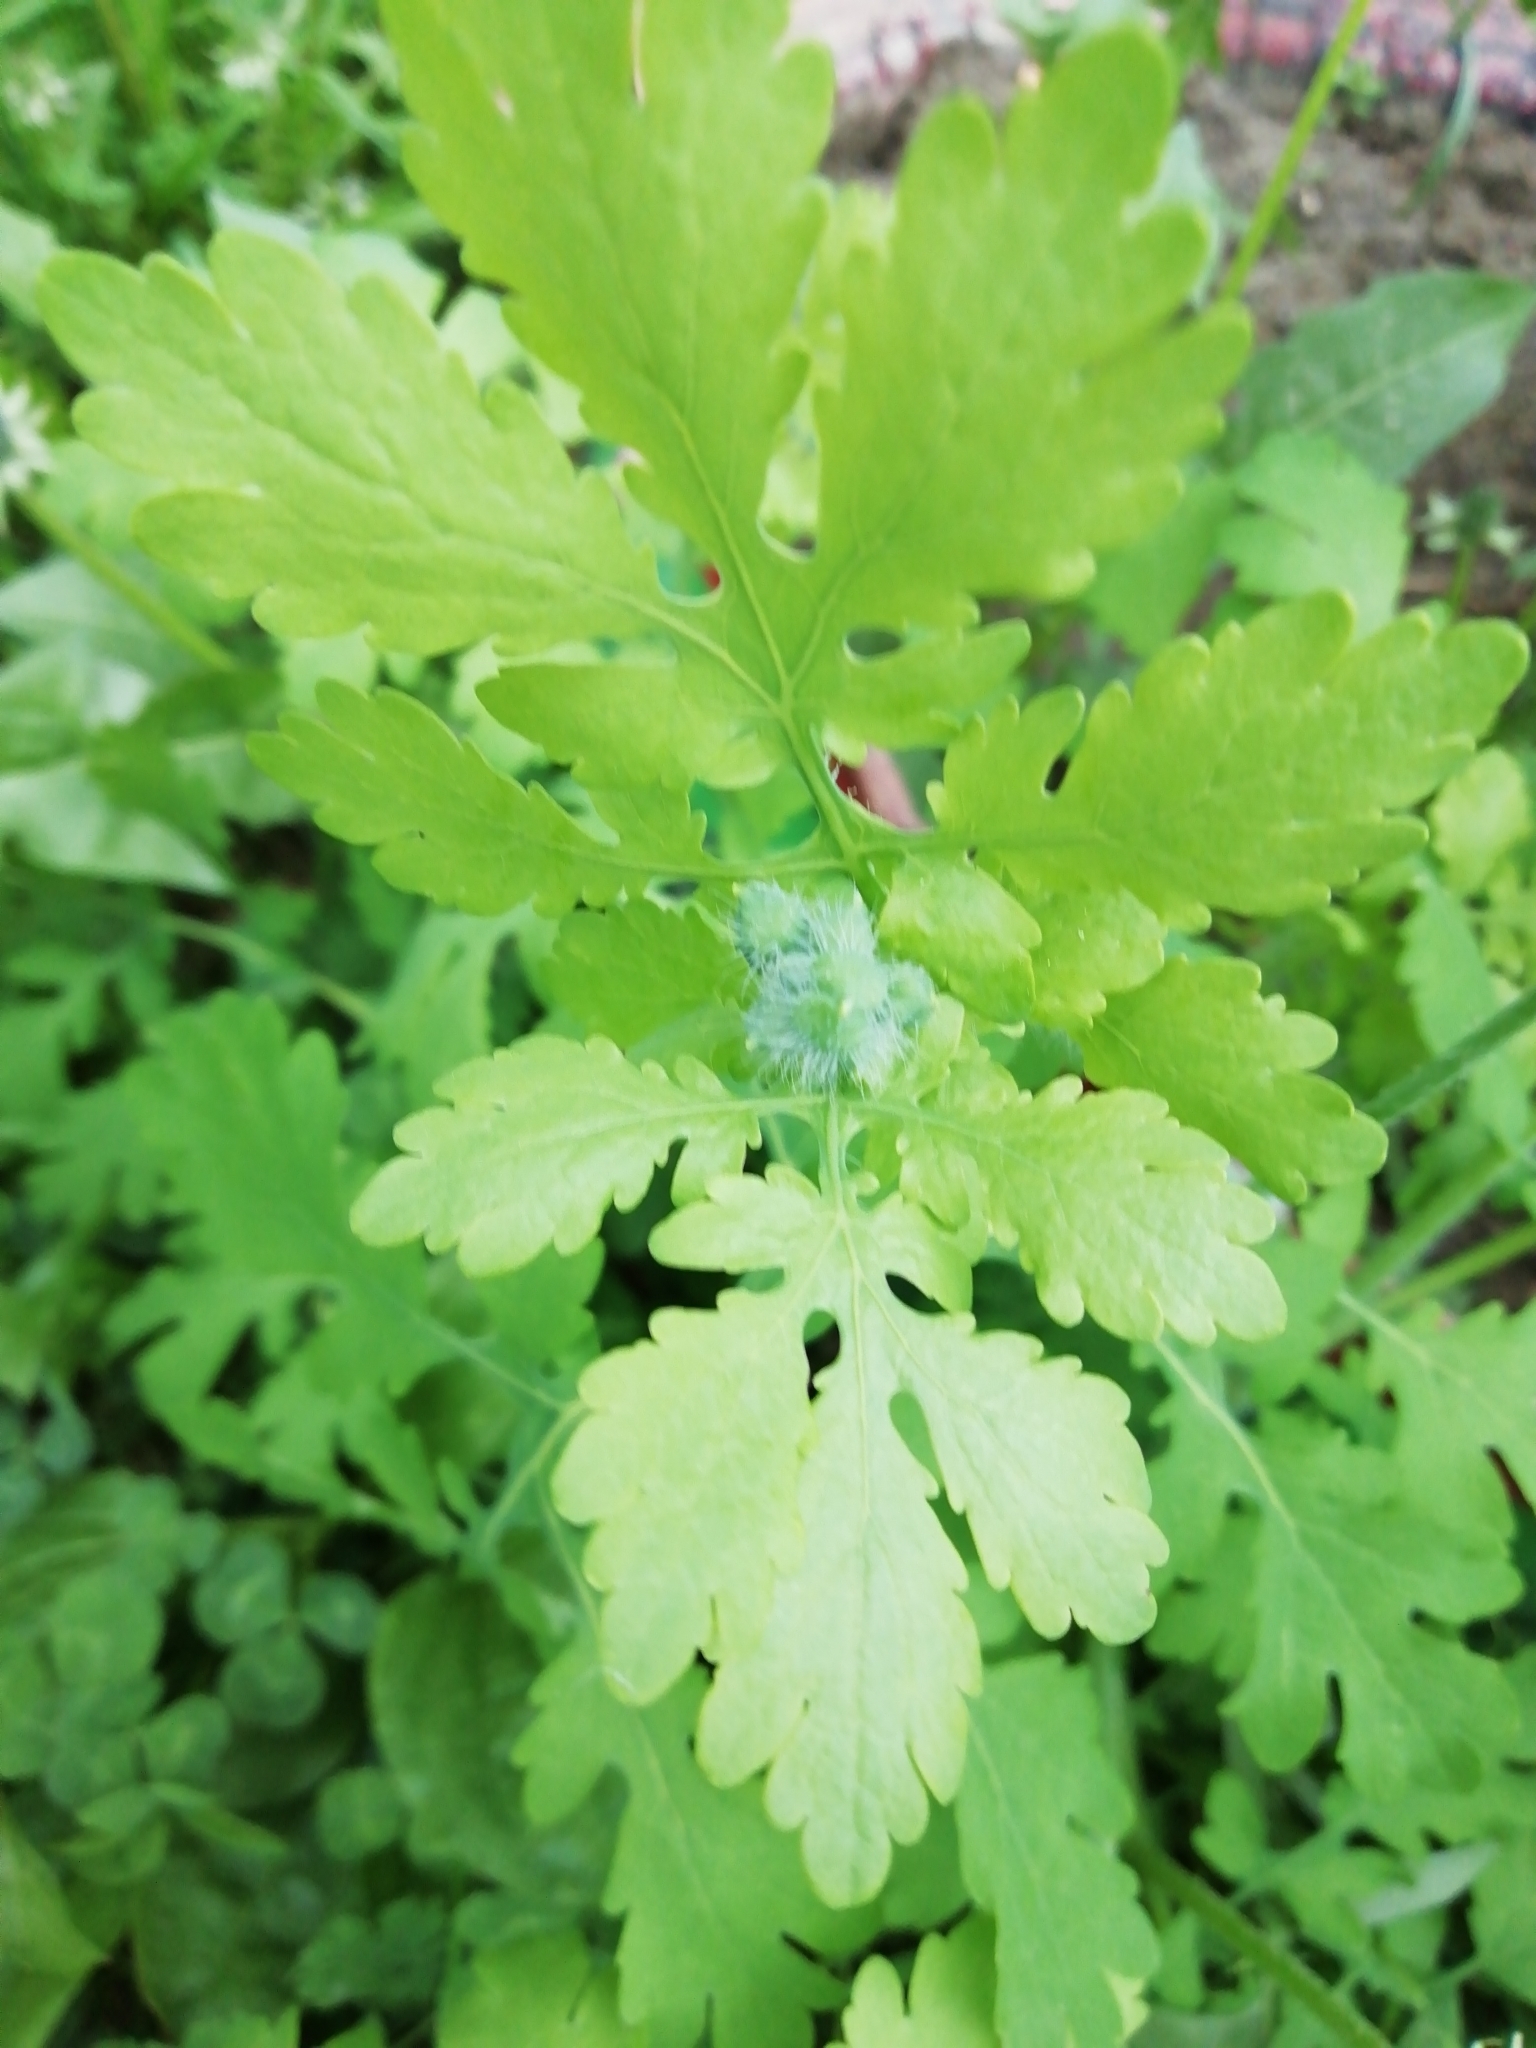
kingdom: Plantae
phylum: Tracheophyta
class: Magnoliopsida
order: Ranunculales
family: Papaveraceae
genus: Chelidonium
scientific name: Chelidonium majus
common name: Greater celandine
